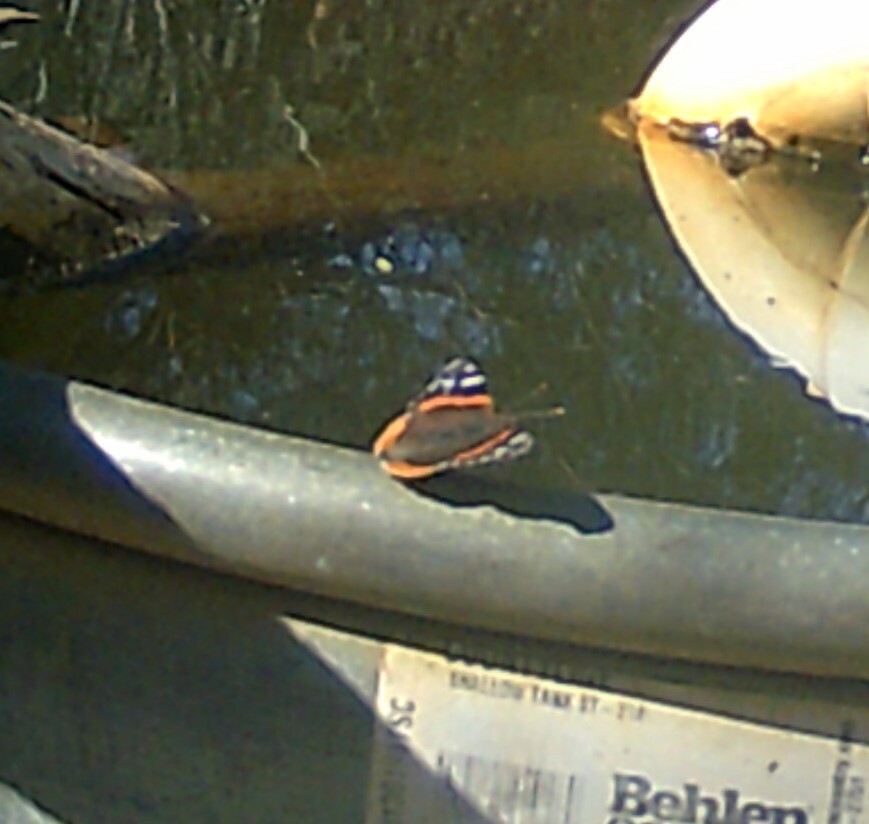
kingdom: Animalia
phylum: Arthropoda
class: Insecta
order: Lepidoptera
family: Nymphalidae
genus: Vanessa
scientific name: Vanessa atalanta
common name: Red admiral
